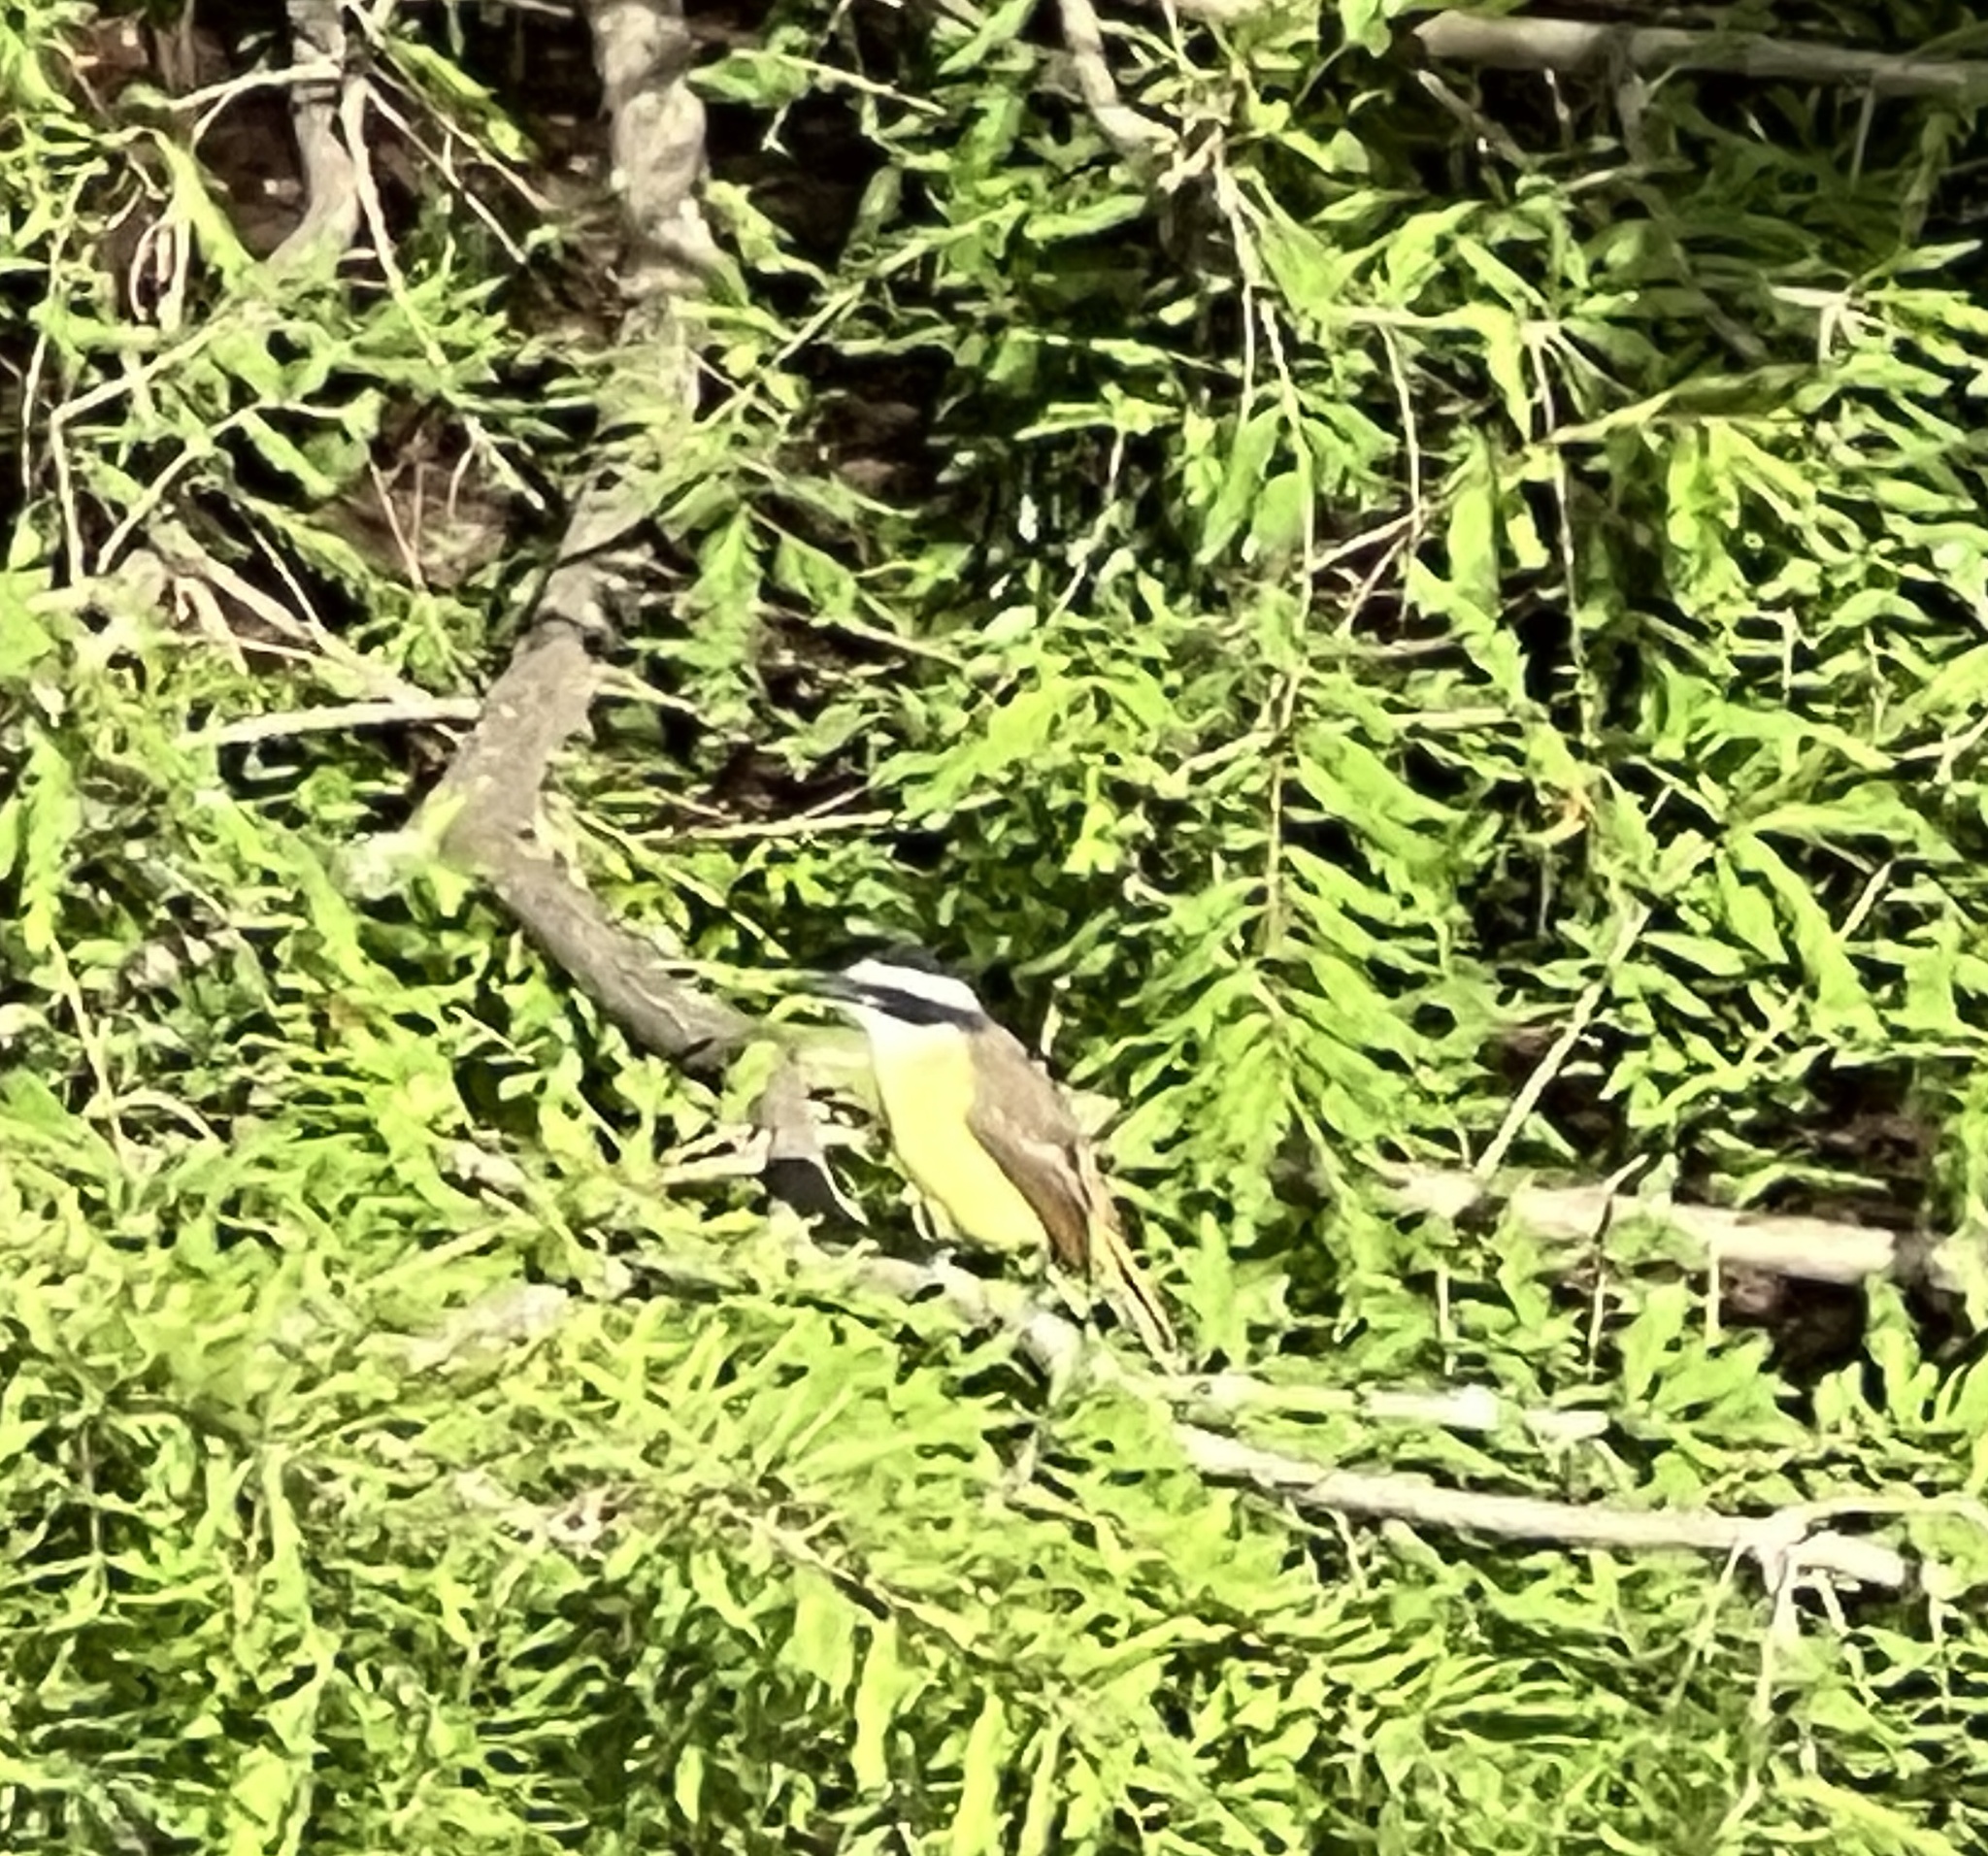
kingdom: Animalia
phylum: Chordata
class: Aves
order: Passeriformes
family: Tyrannidae
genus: Pitangus
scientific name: Pitangus sulphuratus
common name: Great kiskadee
